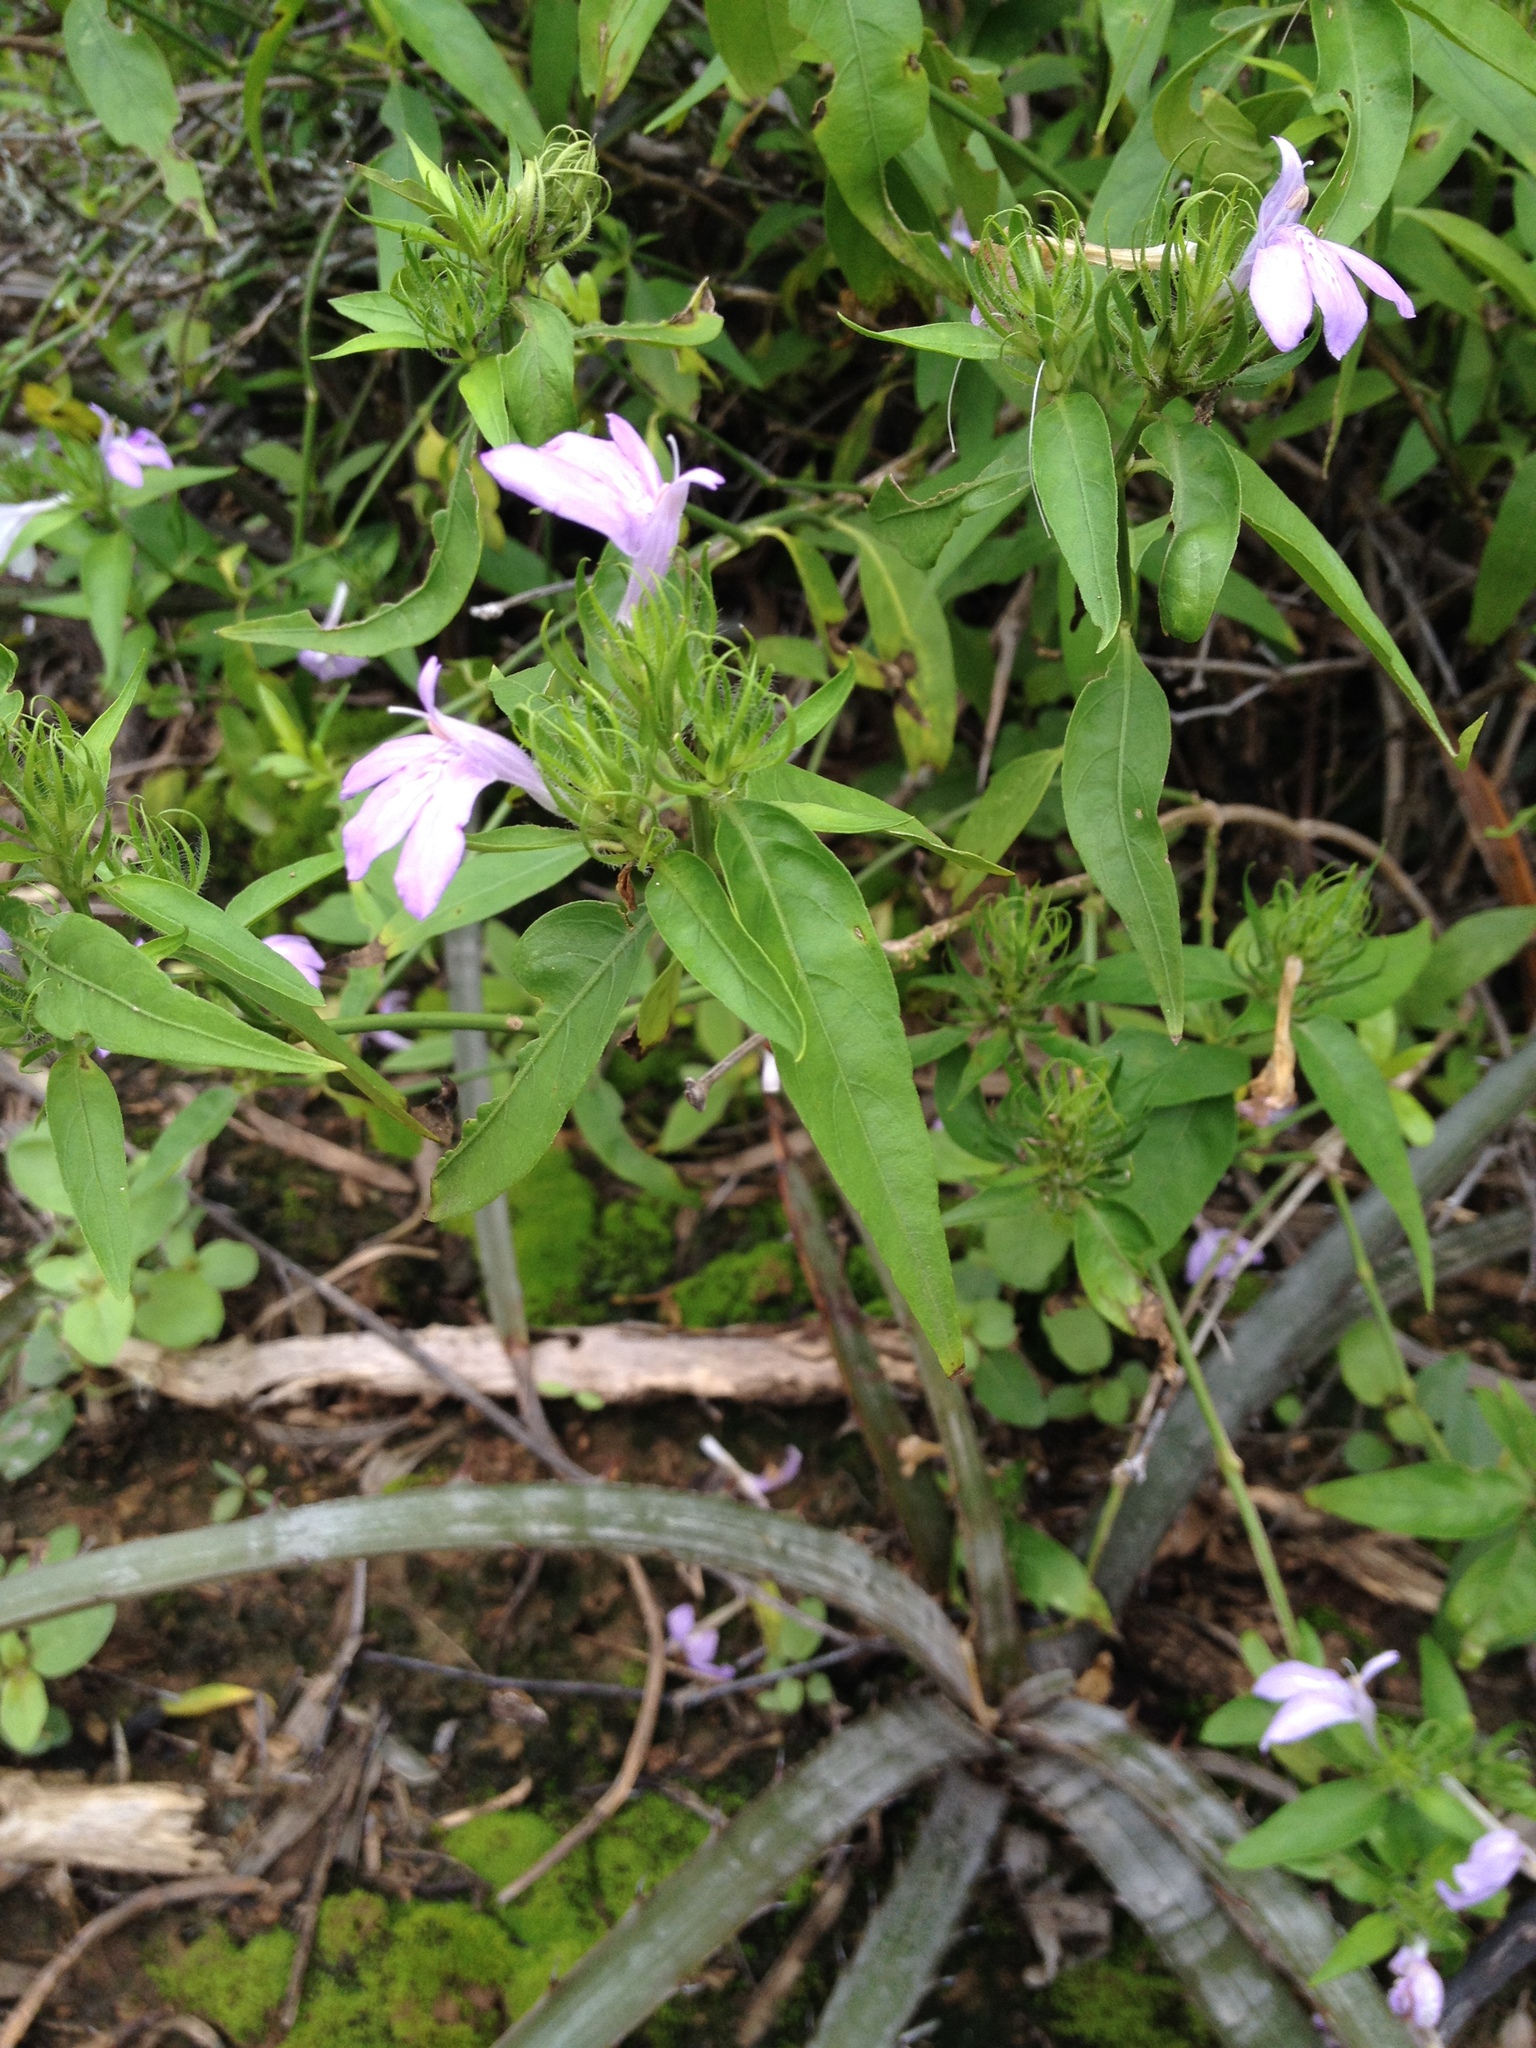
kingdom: Plantae
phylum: Tracheophyta
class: Magnoliopsida
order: Lamiales
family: Acanthaceae
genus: Justicia
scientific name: Justicia squarrosa
